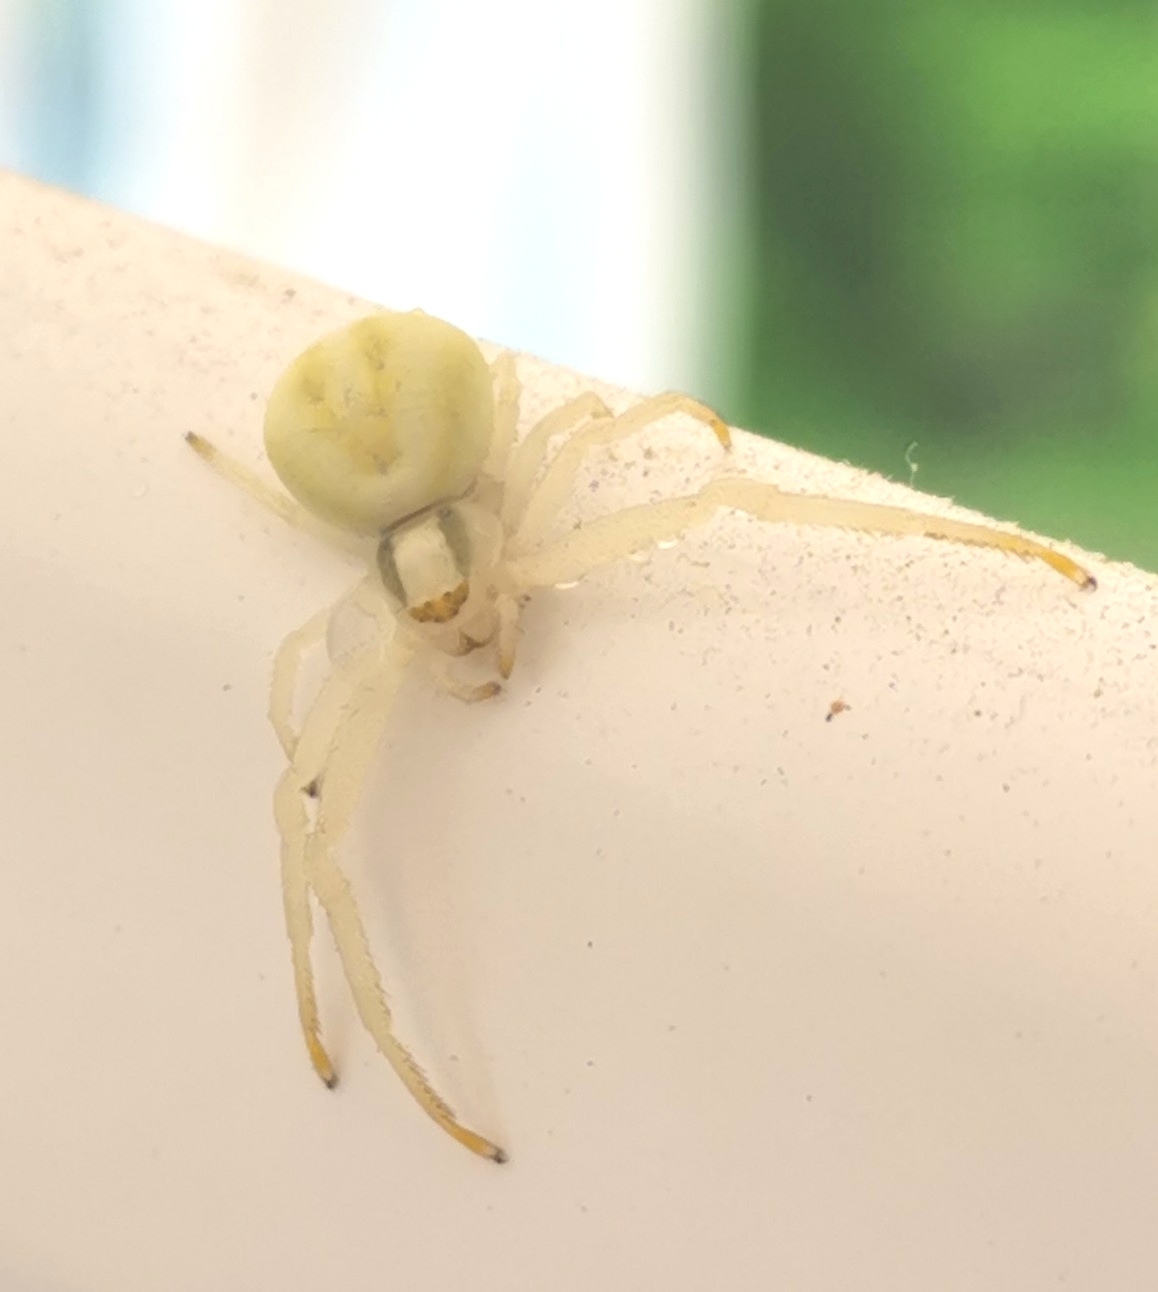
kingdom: Animalia
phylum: Arthropoda
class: Arachnida
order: Araneae
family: Thomisidae
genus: Misumena
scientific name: Misumena vatia
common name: Goldenrod crab spider
